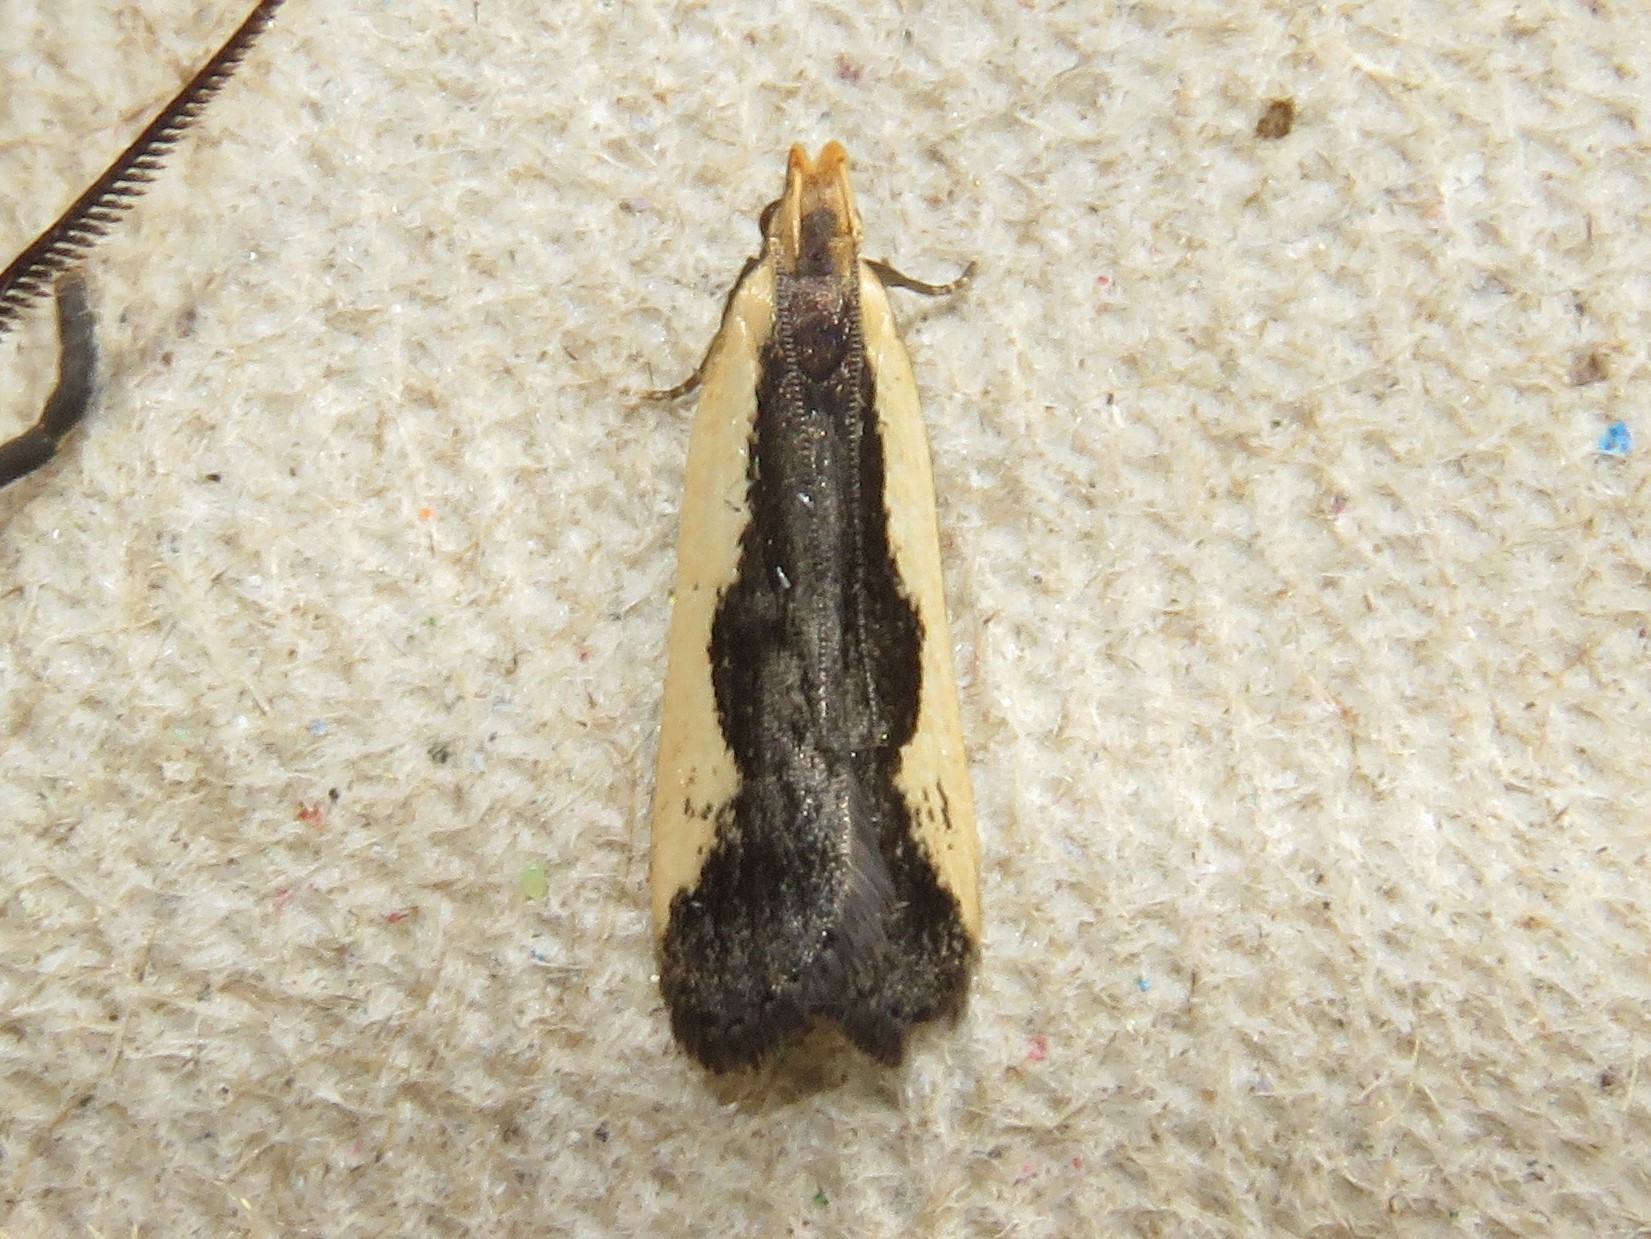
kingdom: Animalia
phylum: Arthropoda
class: Insecta
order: Lepidoptera
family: Gelechiidae
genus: Dichomeris
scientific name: Dichomeris inserrata
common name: Indented dichomeris moth
